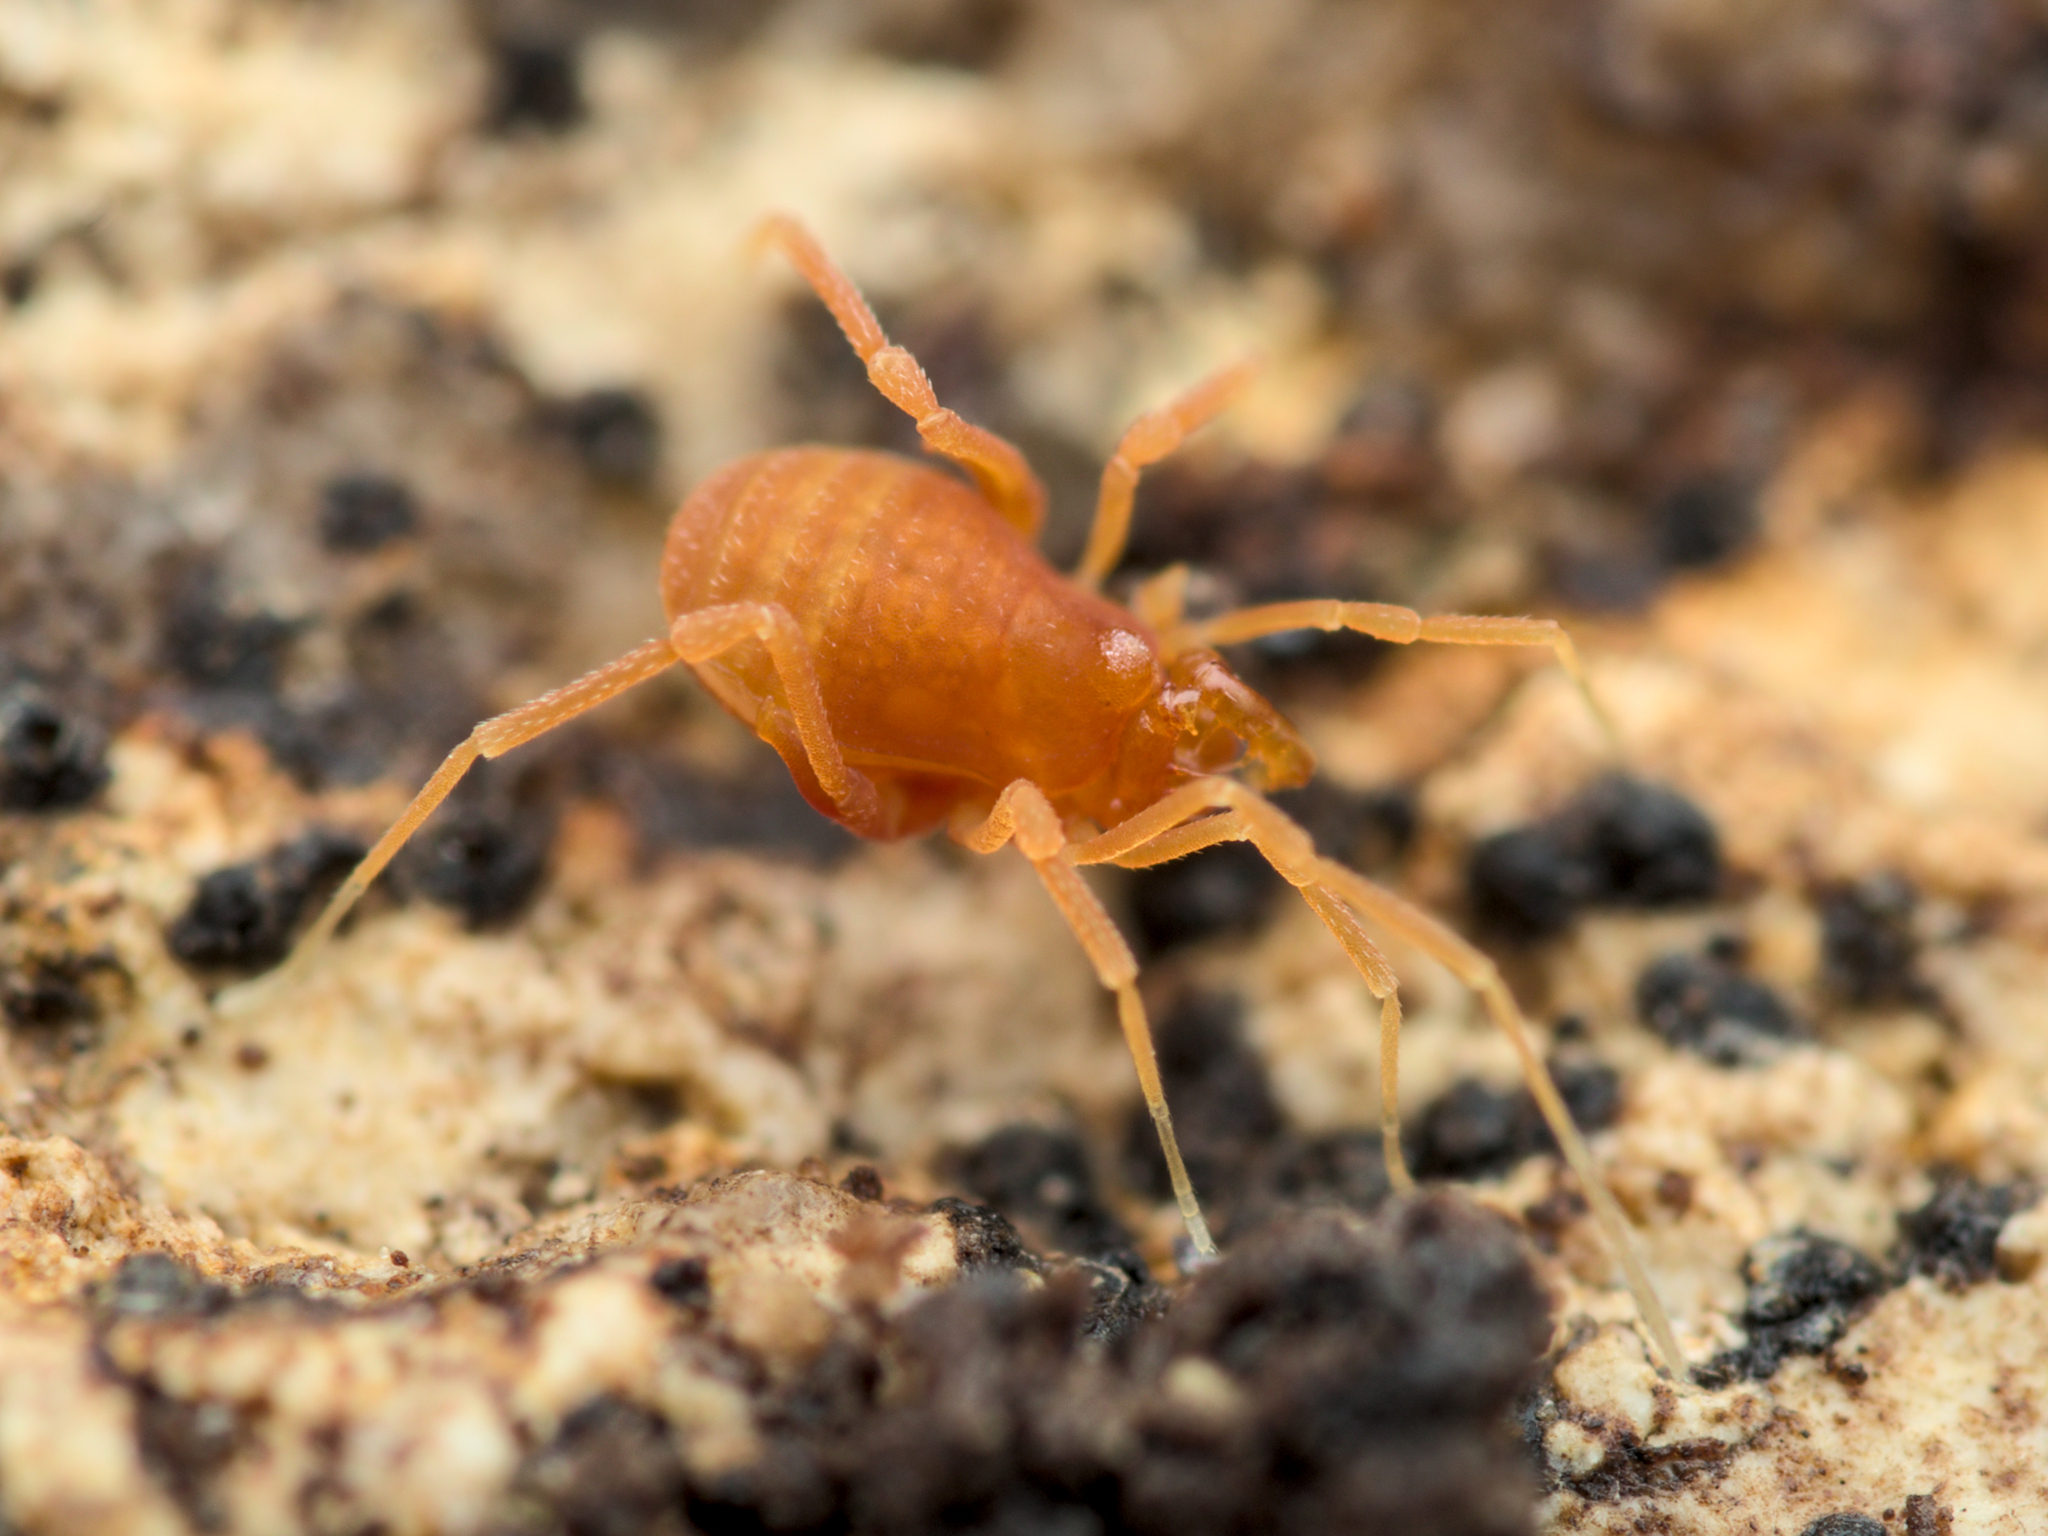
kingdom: Animalia
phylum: Arthropoda
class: Arachnida
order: Opiliones
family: Phalangodidae
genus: Scotolemon
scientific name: Scotolemon doriae
